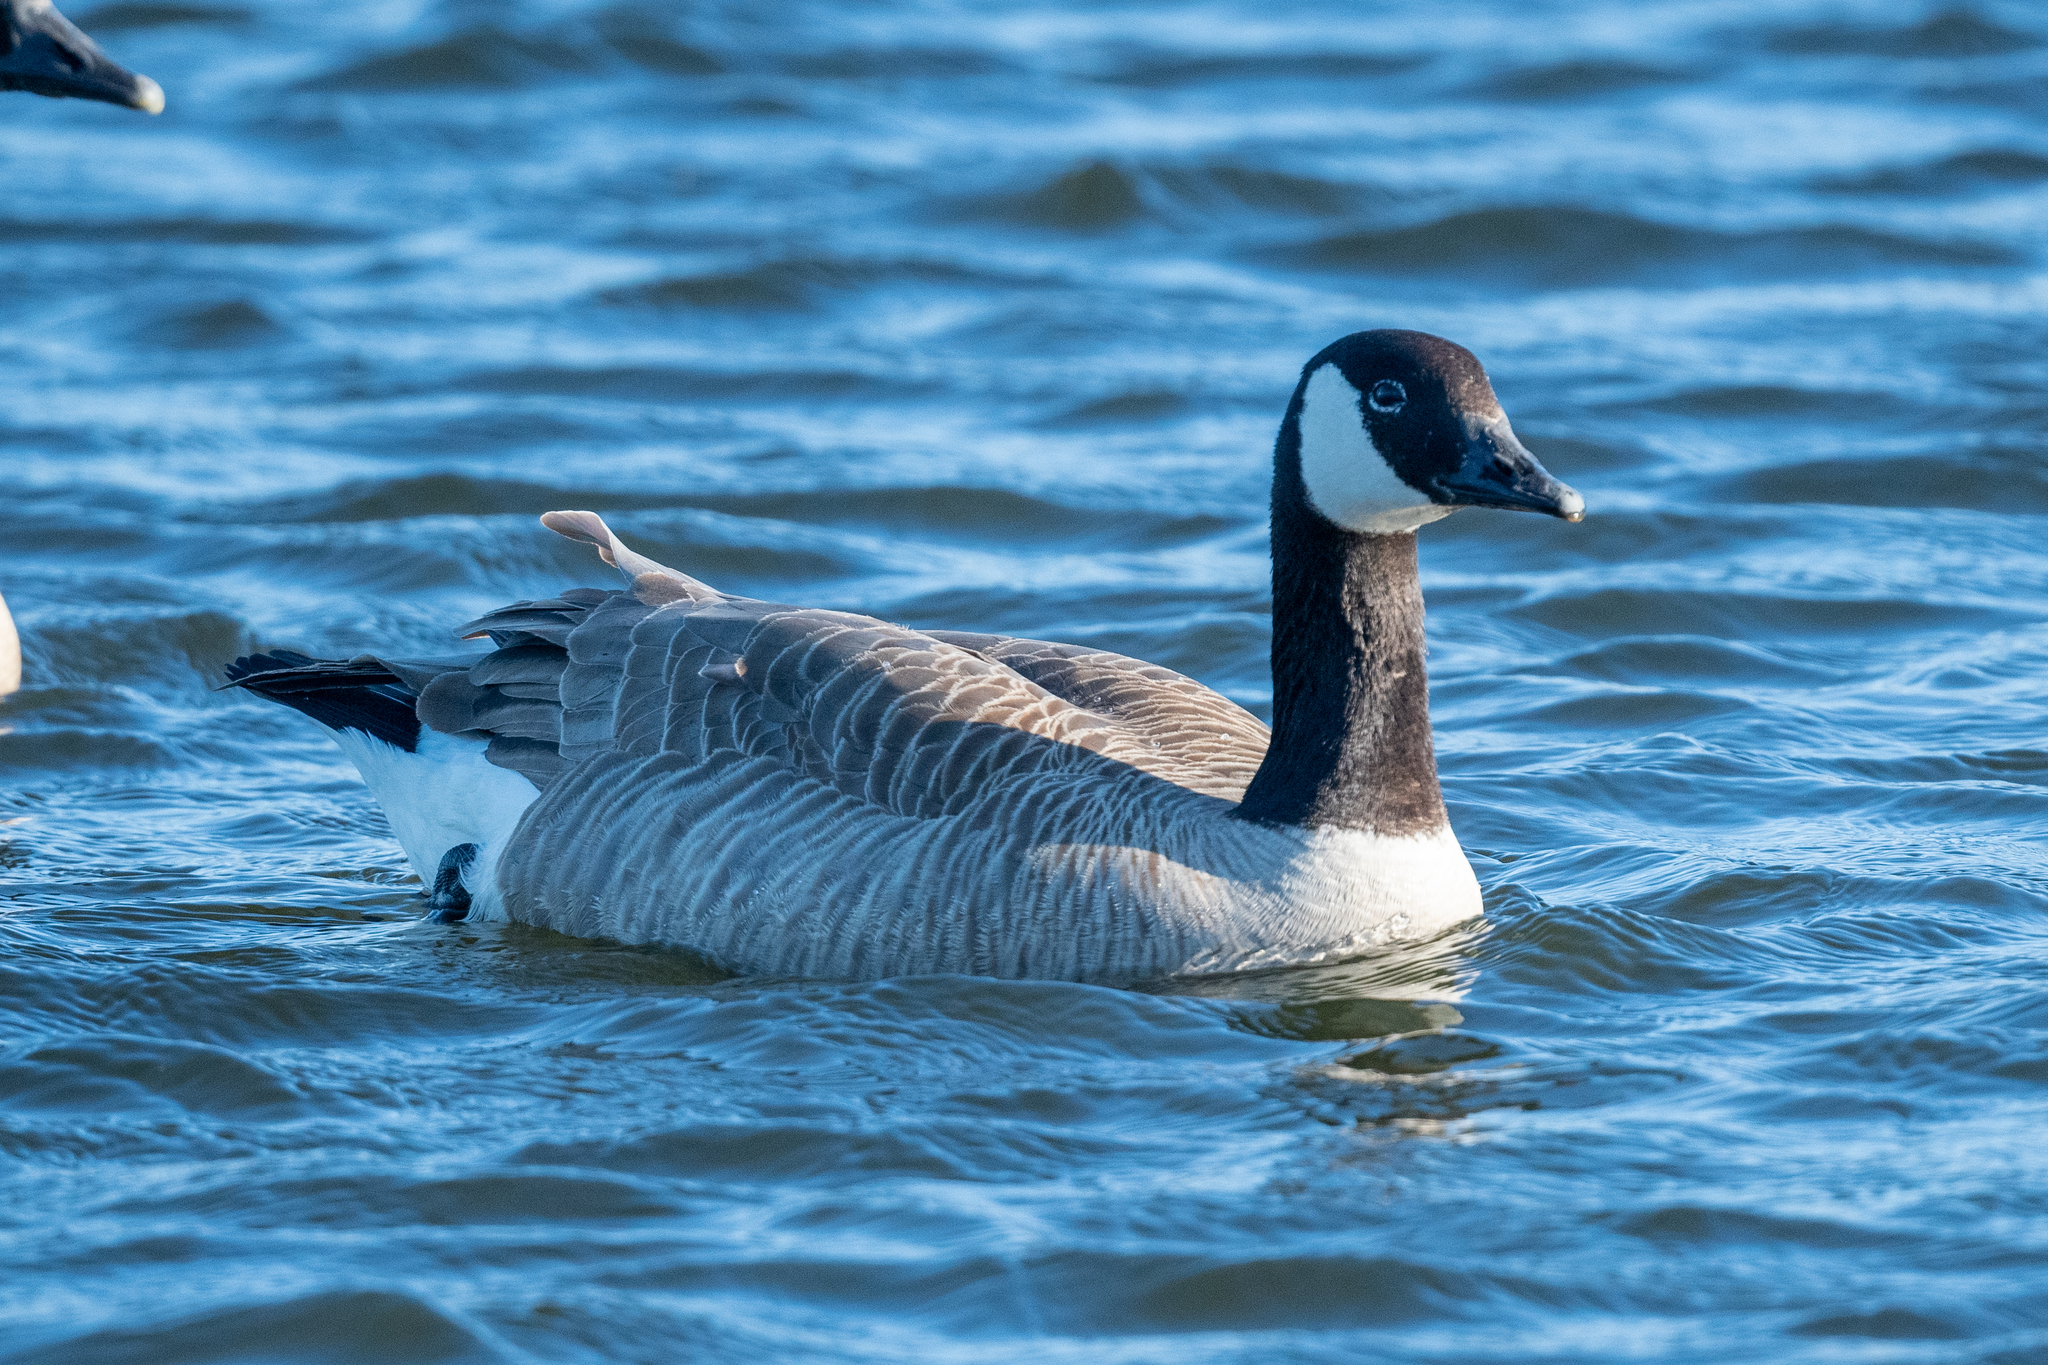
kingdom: Animalia
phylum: Chordata
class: Aves
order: Anseriformes
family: Anatidae
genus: Branta
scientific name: Branta canadensis
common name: Canada goose
